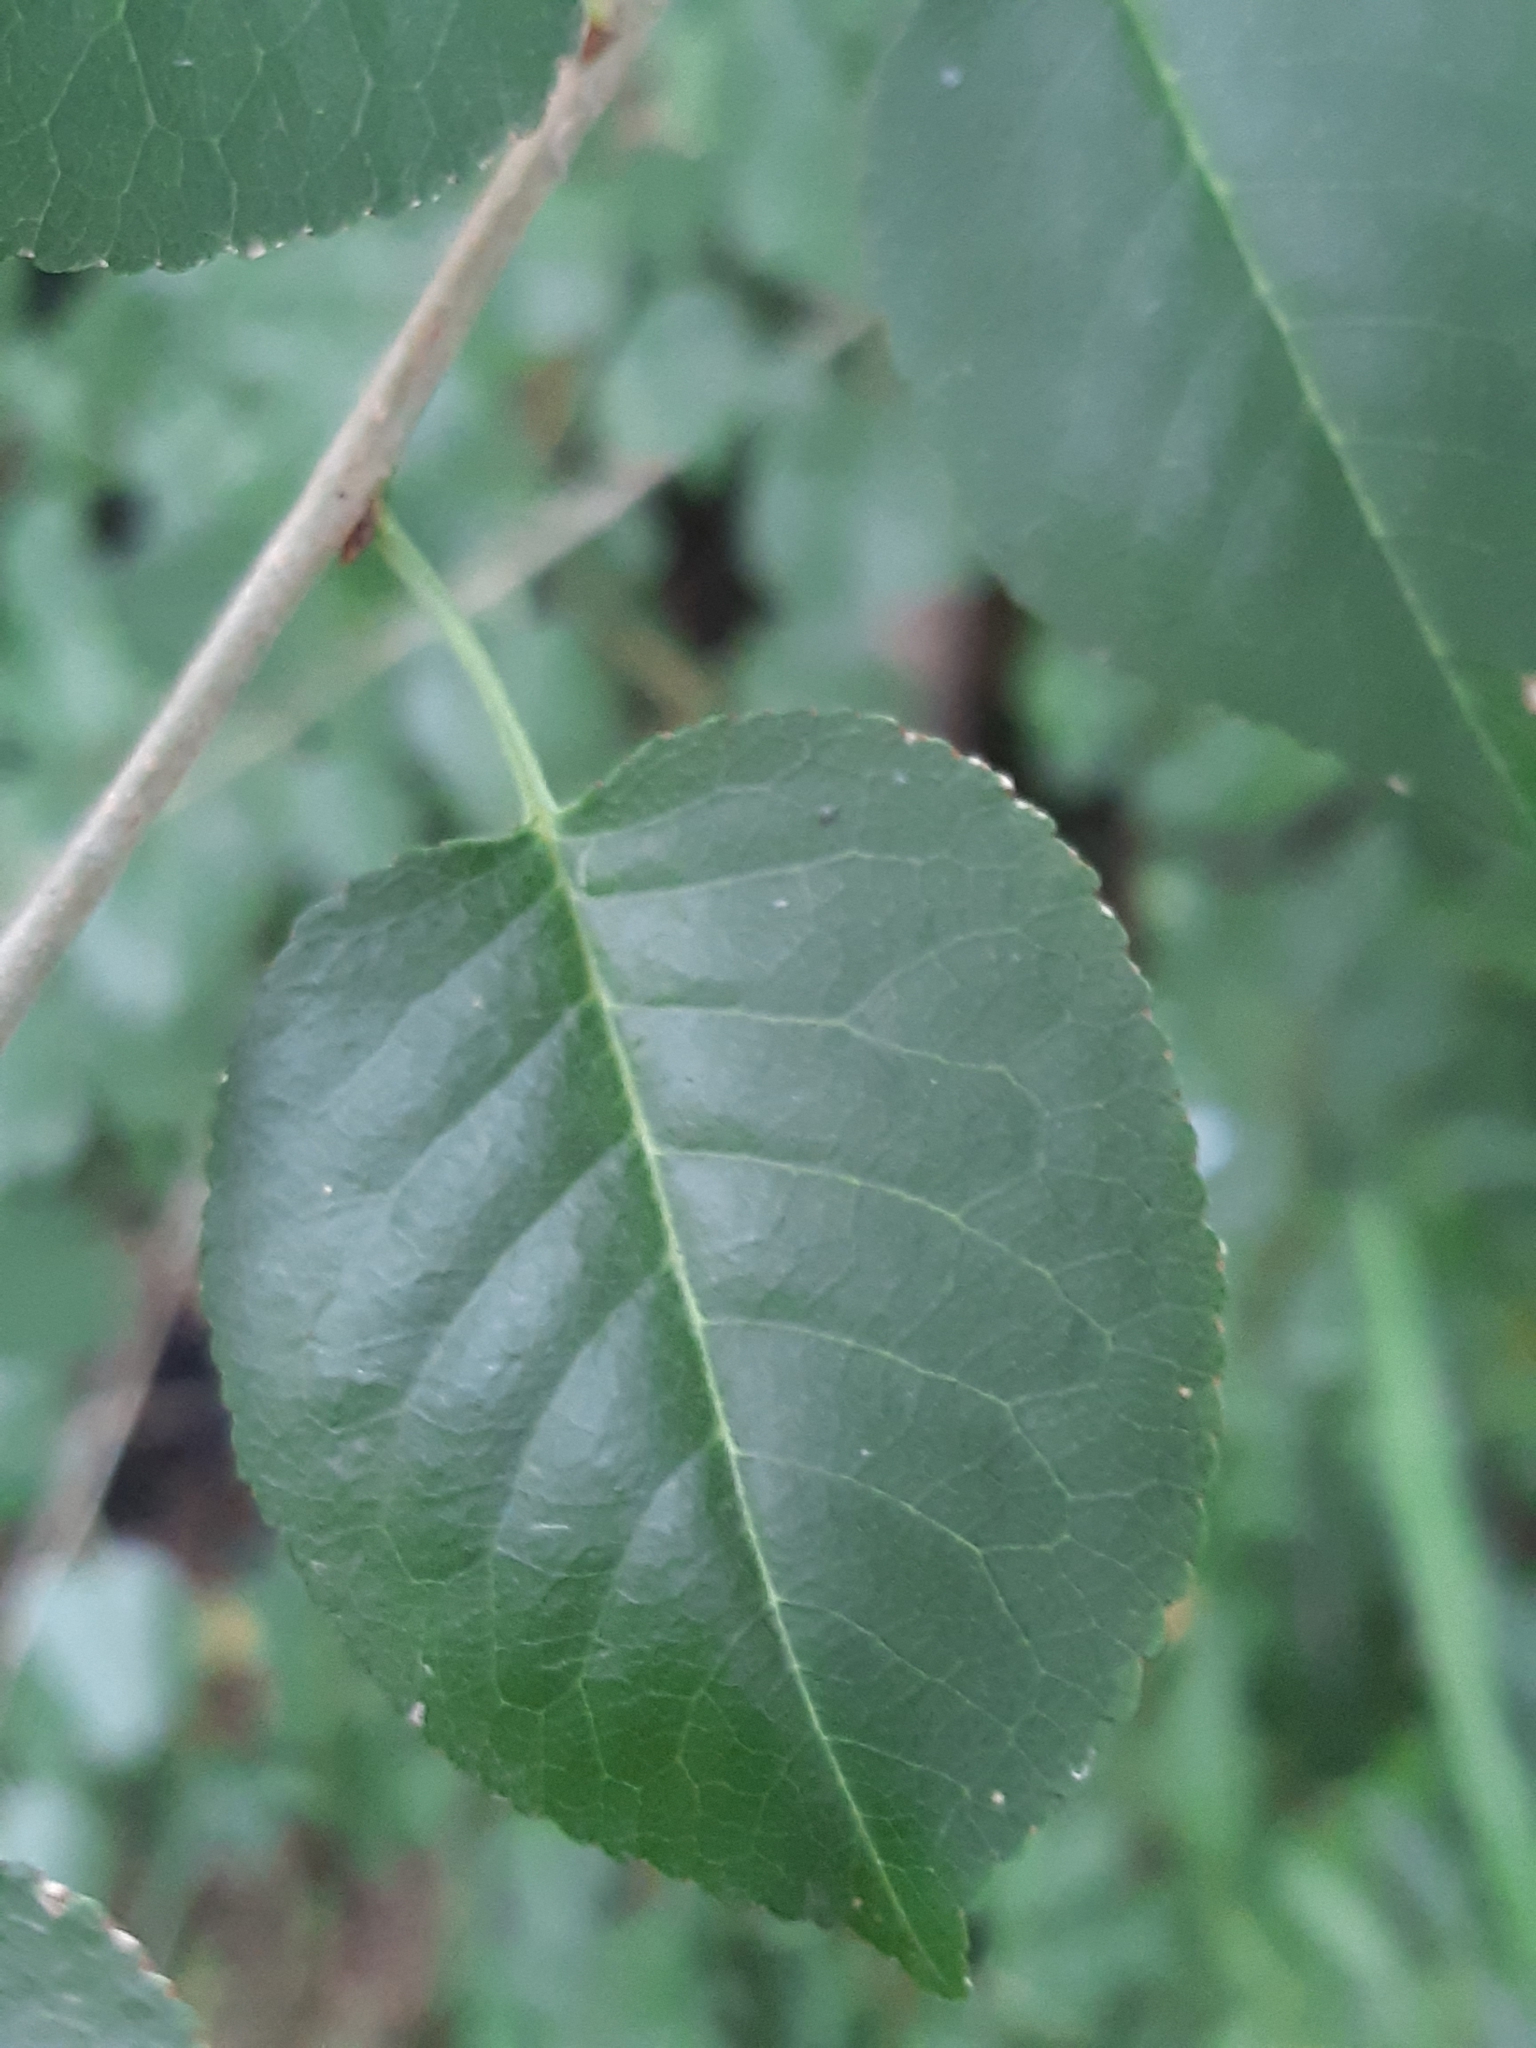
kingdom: Plantae
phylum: Tracheophyta
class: Magnoliopsida
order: Rosales
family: Rosaceae
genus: Prunus
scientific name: Prunus mahaleb
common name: Mahaleb cherry
